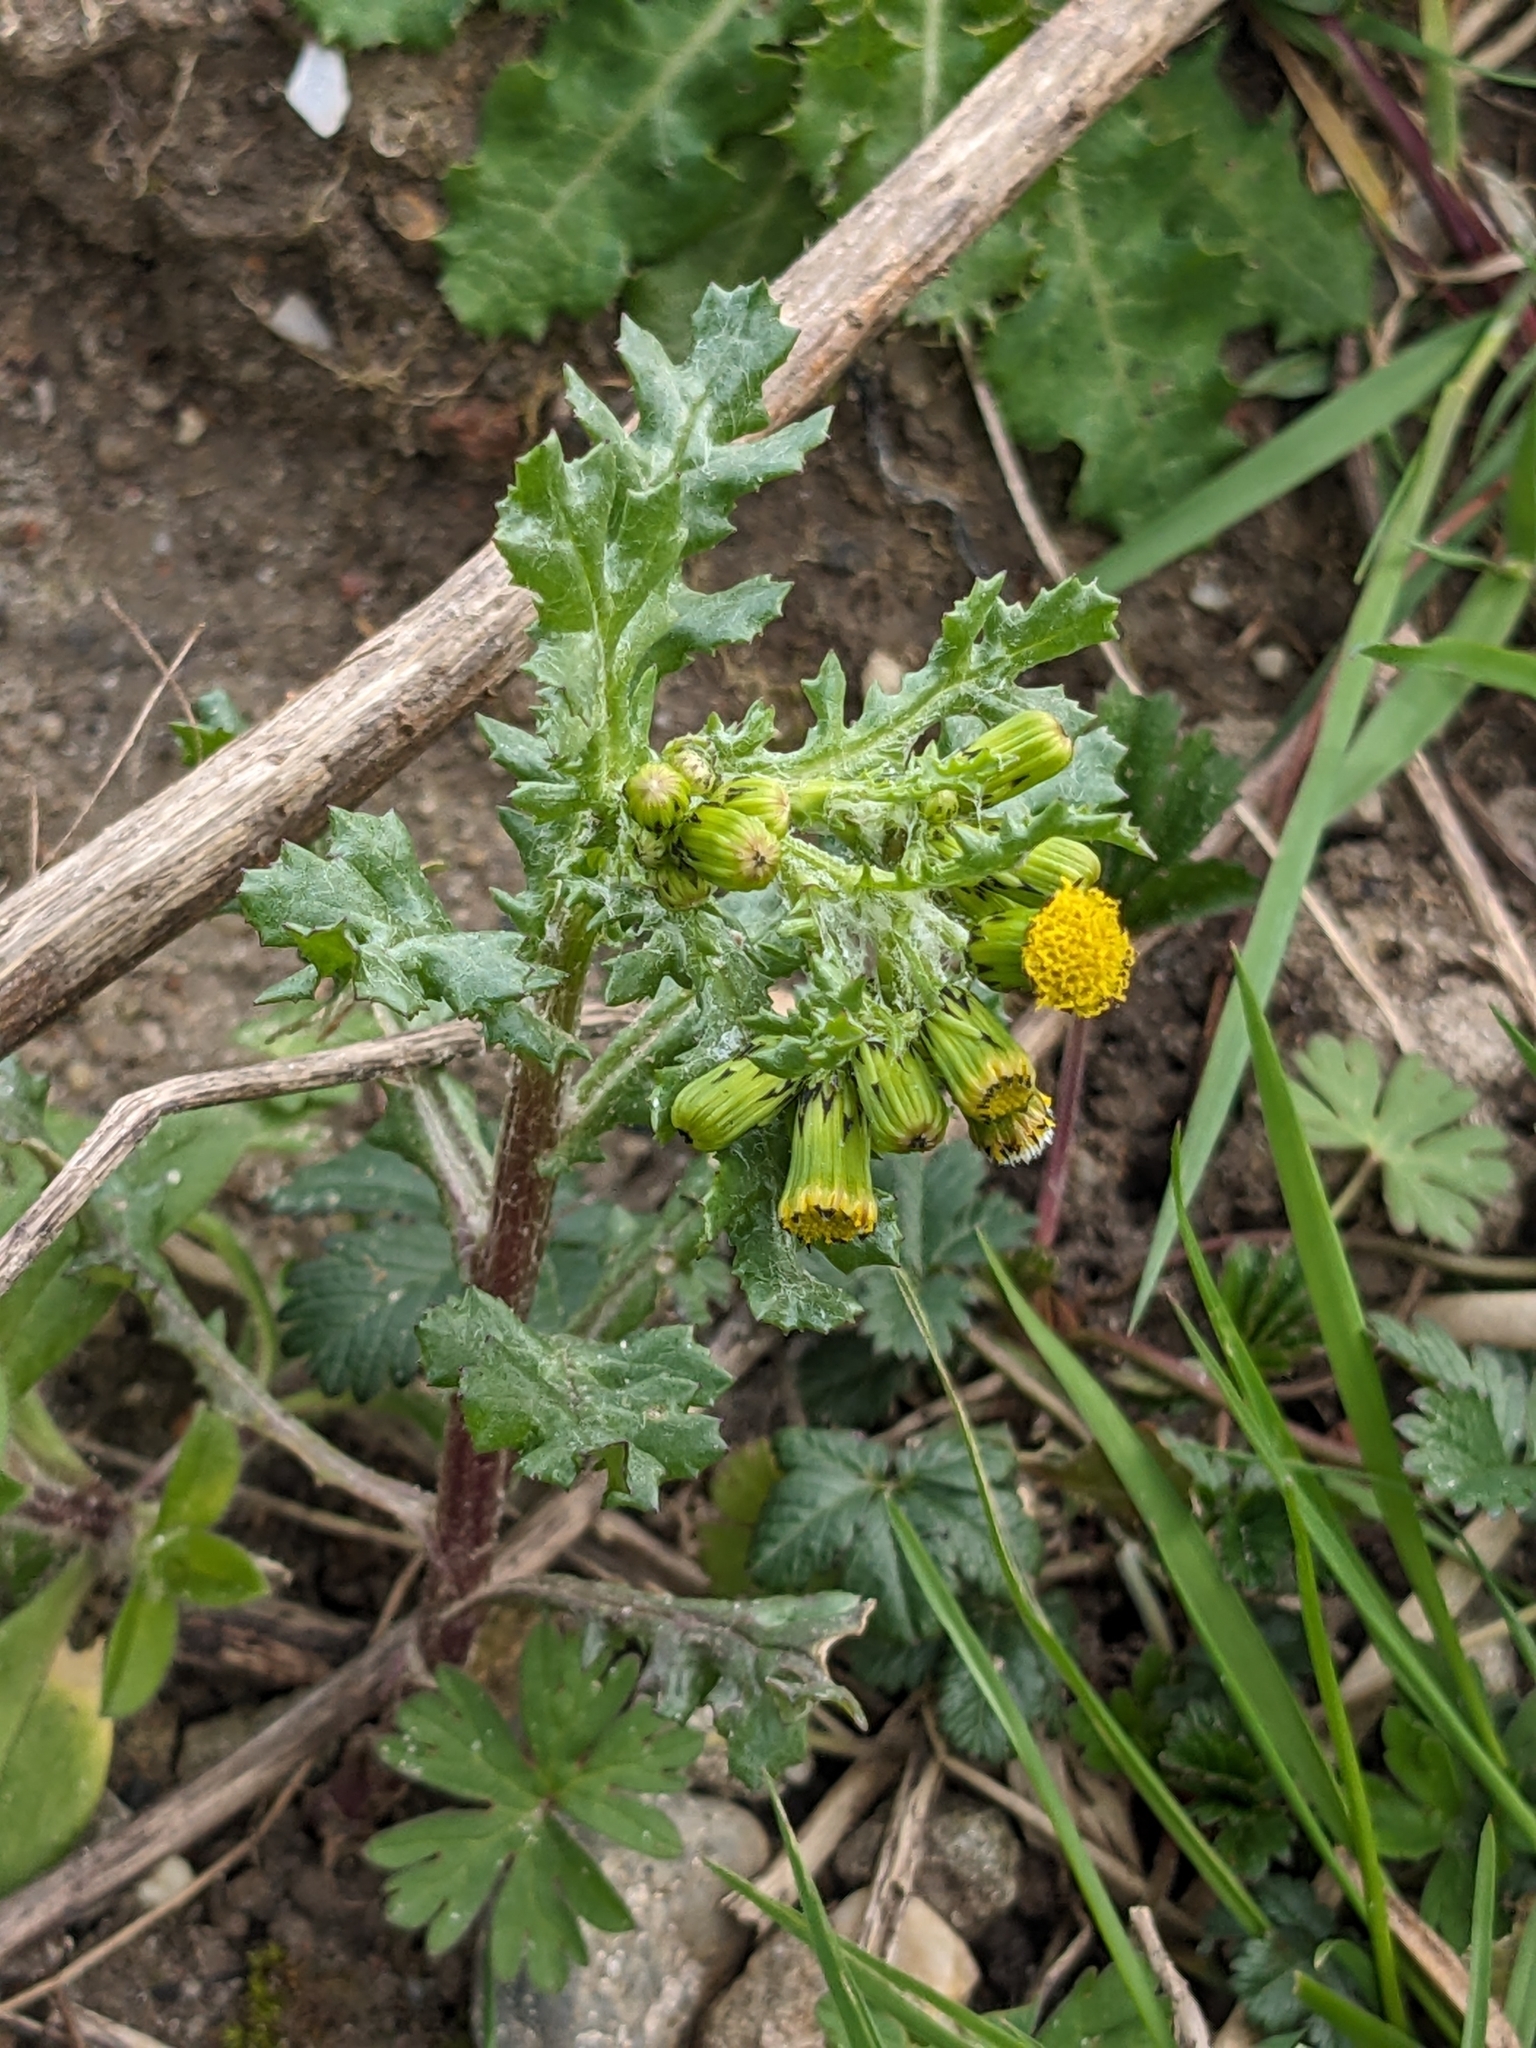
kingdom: Plantae
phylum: Tracheophyta
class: Magnoliopsida
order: Asterales
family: Asteraceae
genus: Senecio
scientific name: Senecio vulgaris
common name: Old-man-in-the-spring
